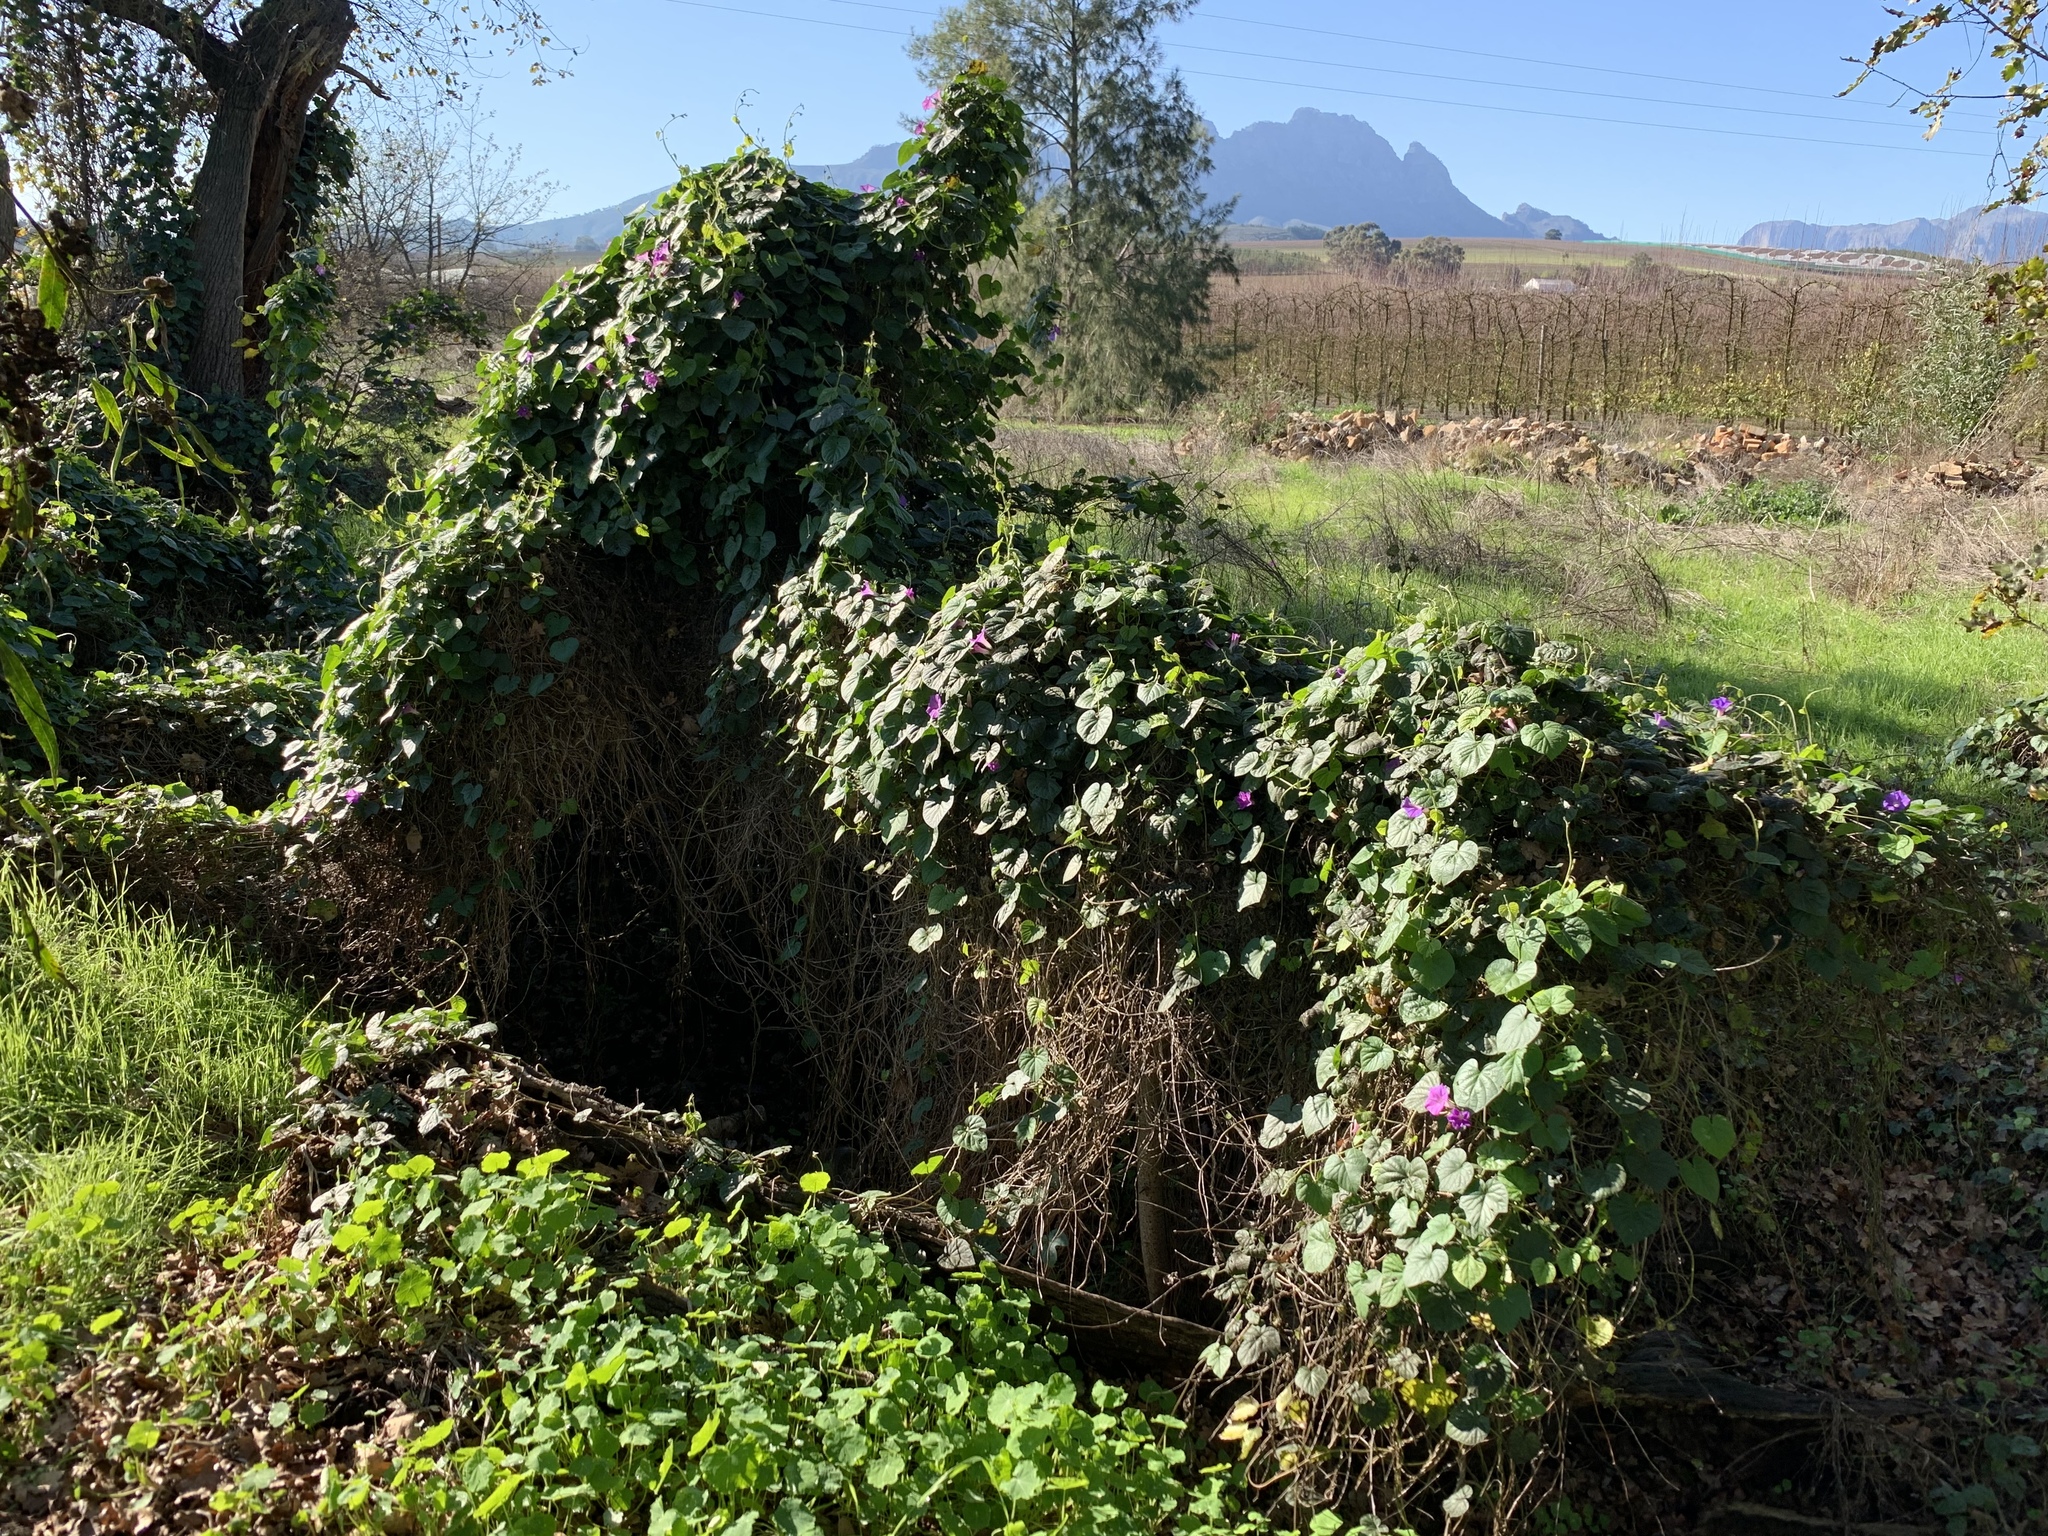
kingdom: Plantae
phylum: Tracheophyta
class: Magnoliopsida
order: Solanales
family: Convolvulaceae
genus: Ipomoea
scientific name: Ipomoea indica
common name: Blue dawnflower
